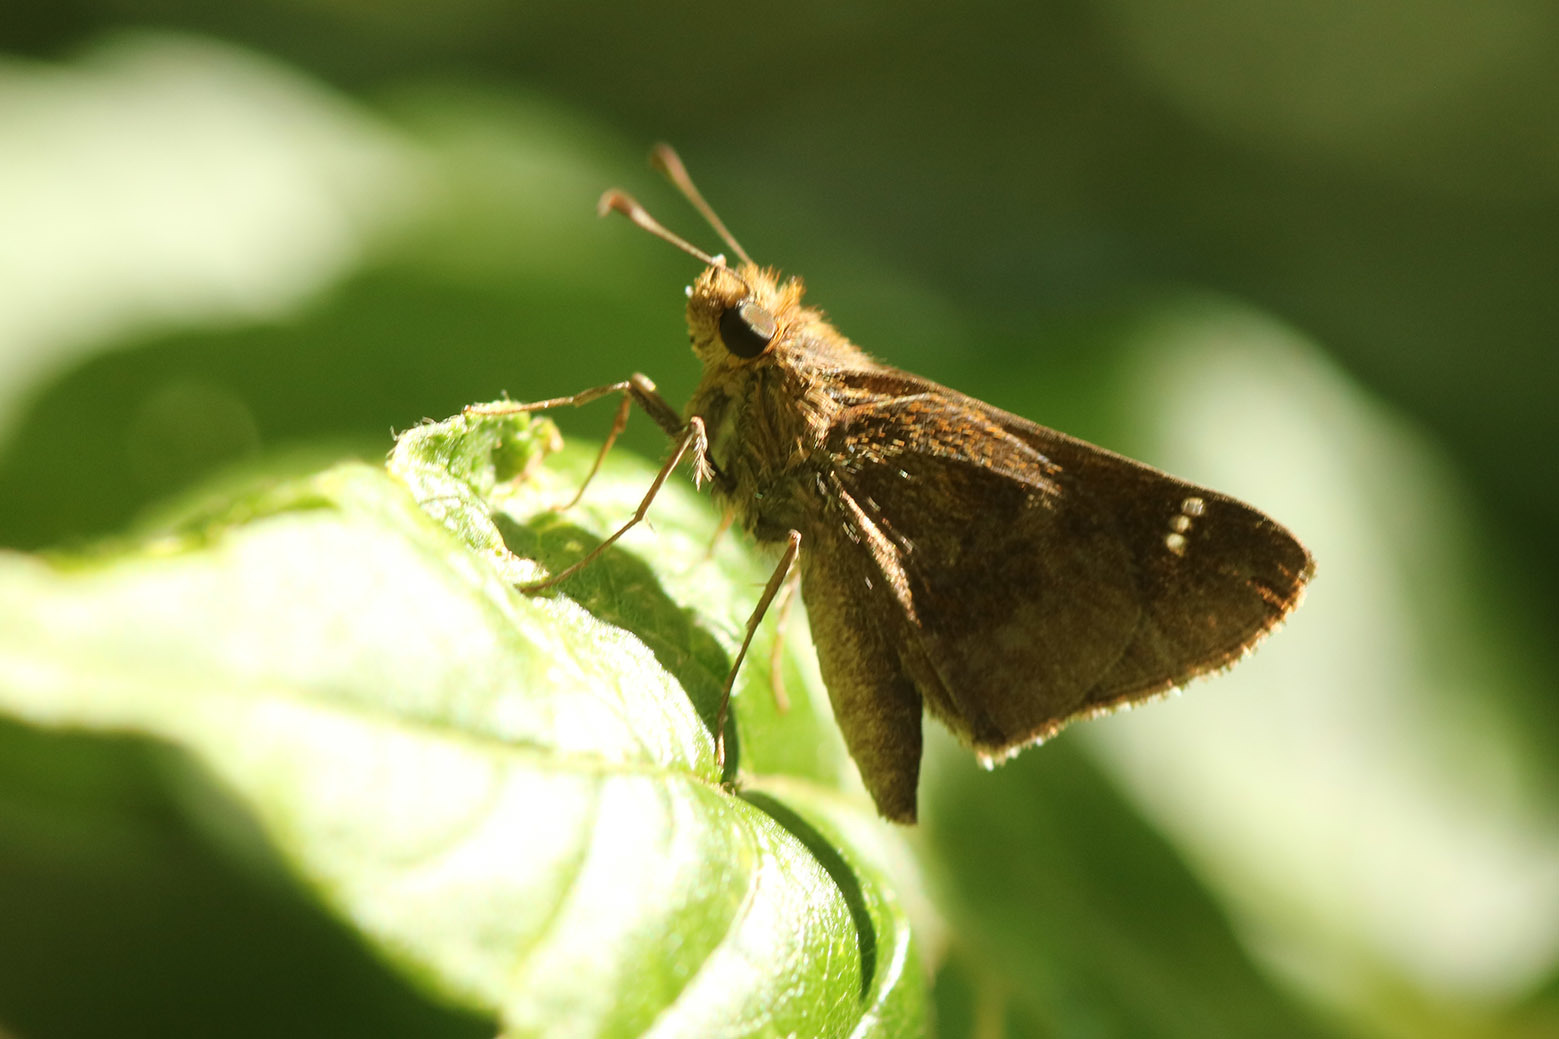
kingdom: Animalia
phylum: Arthropoda
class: Insecta
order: Lepidoptera
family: Hesperiidae
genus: Cymaenes
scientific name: Cymaenes
